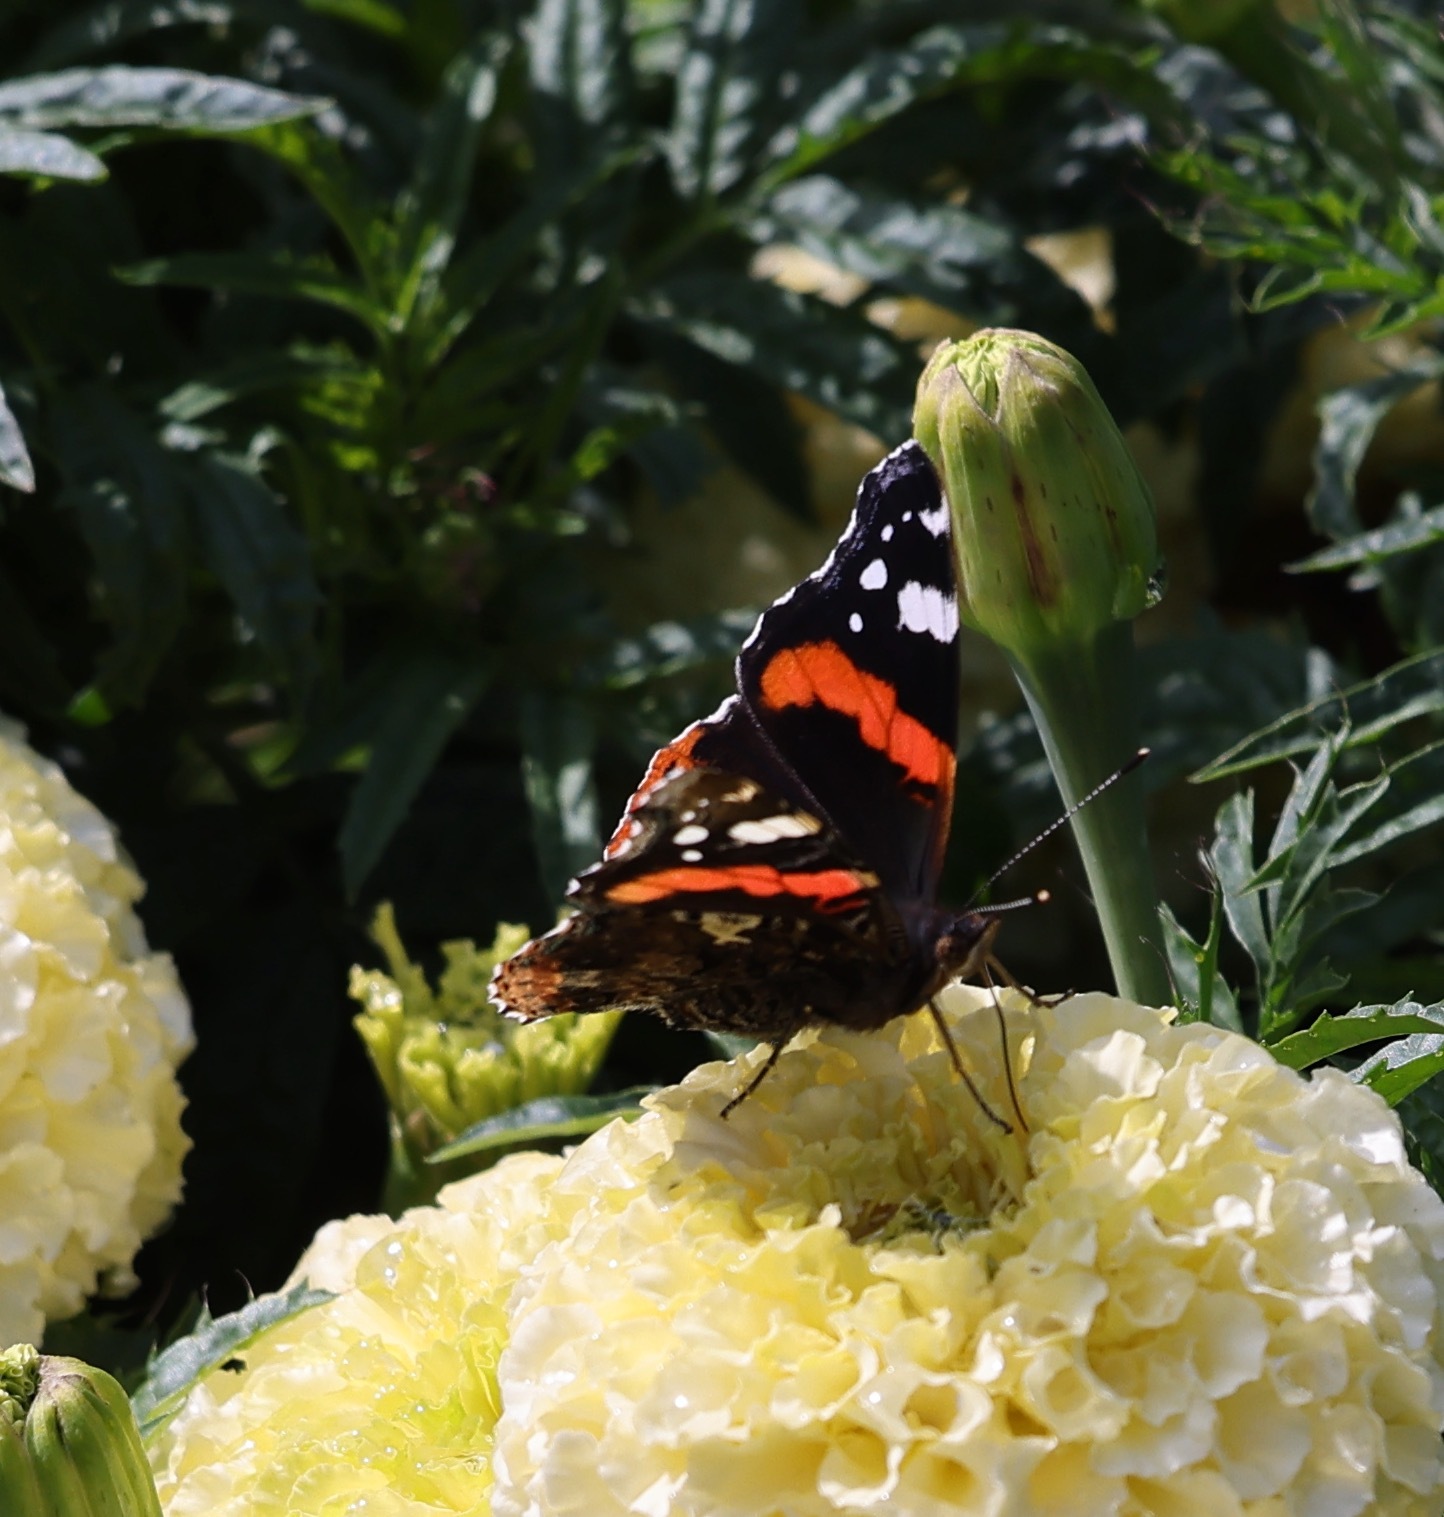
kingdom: Animalia
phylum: Arthropoda
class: Insecta
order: Lepidoptera
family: Nymphalidae
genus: Vanessa
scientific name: Vanessa atalanta
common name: Red admiral
